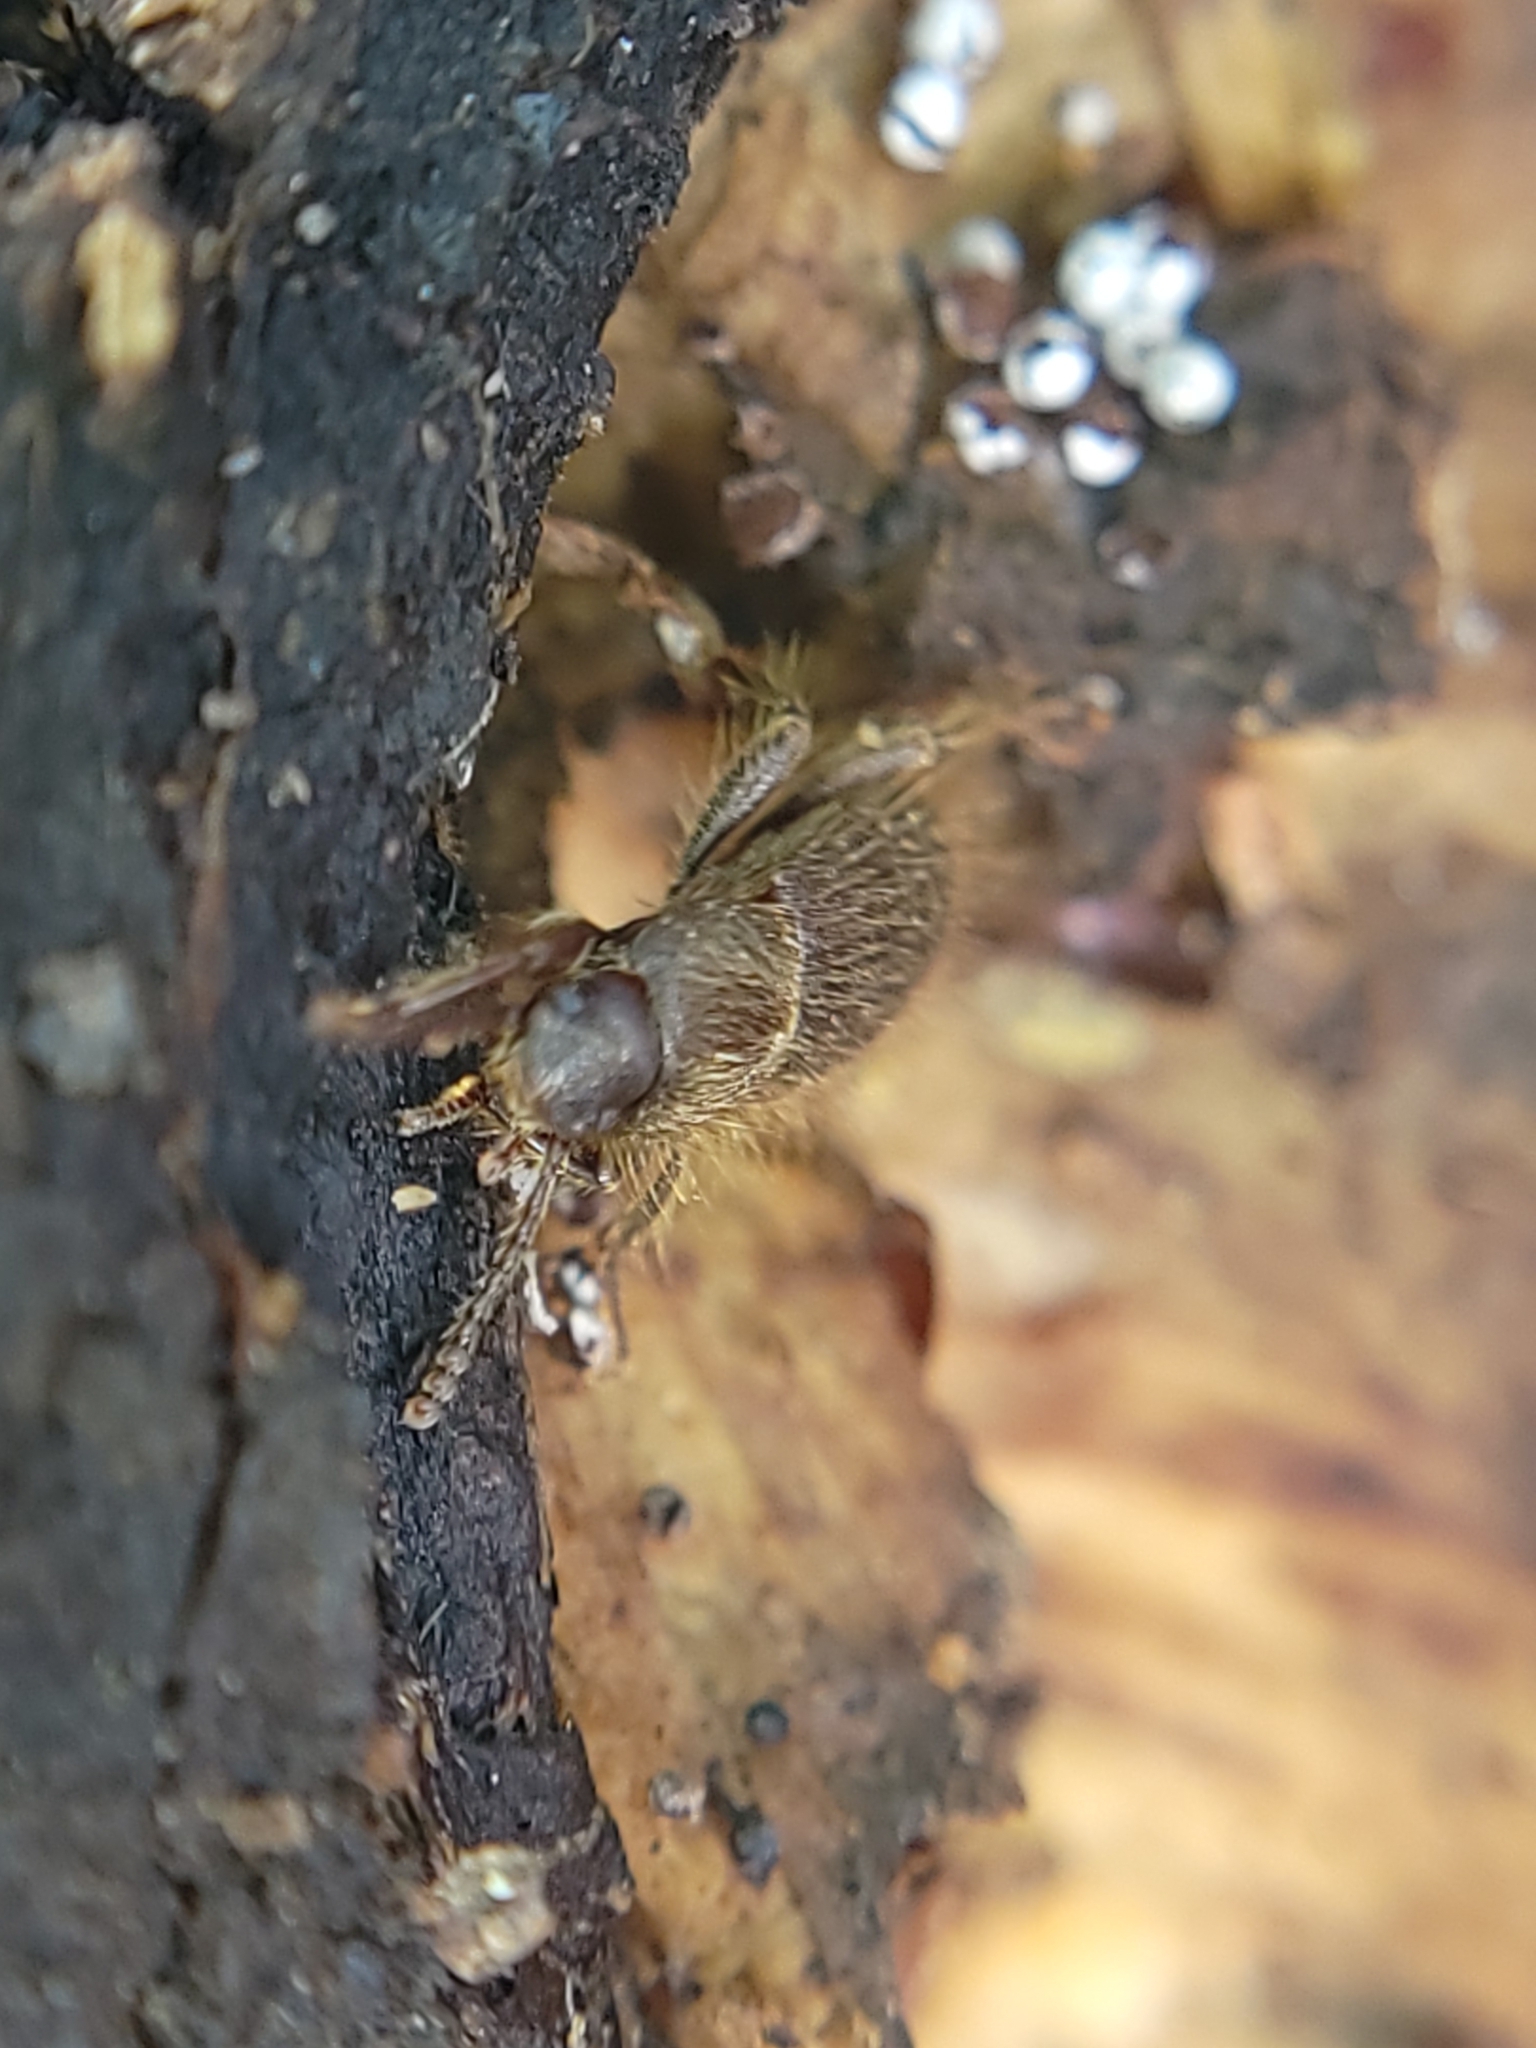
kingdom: Animalia
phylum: Arthropoda
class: Insecta
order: Coleoptera
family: Tenebrionidae
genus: Eleodes
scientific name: Eleodes littoralis
